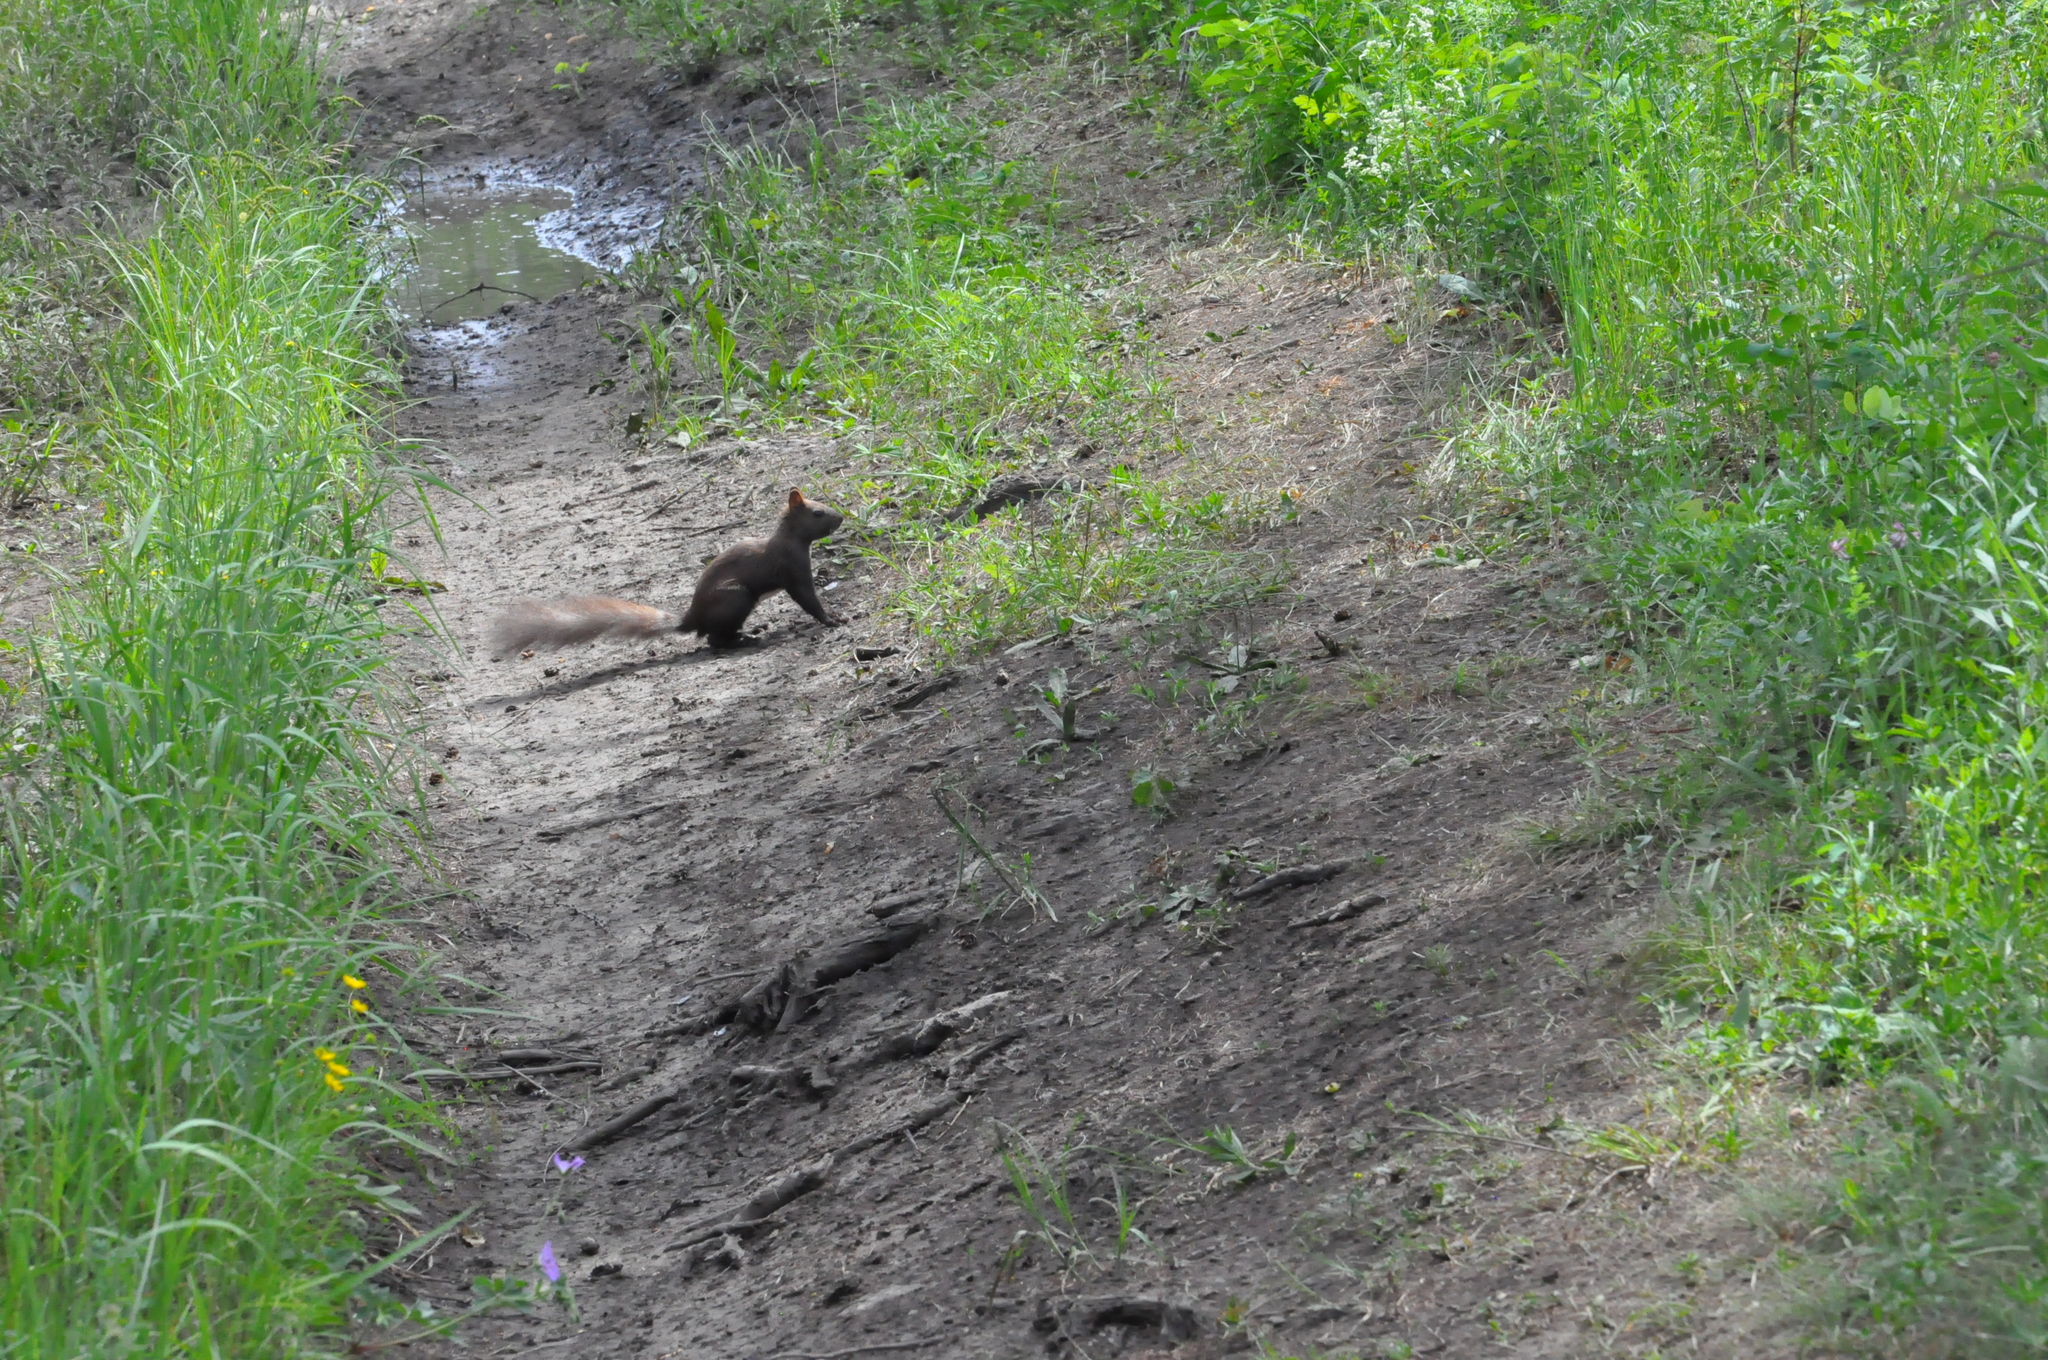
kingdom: Animalia
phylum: Chordata
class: Mammalia
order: Rodentia
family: Sciuridae
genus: Sciurus
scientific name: Sciurus vulgaris
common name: Eurasian red squirrel
